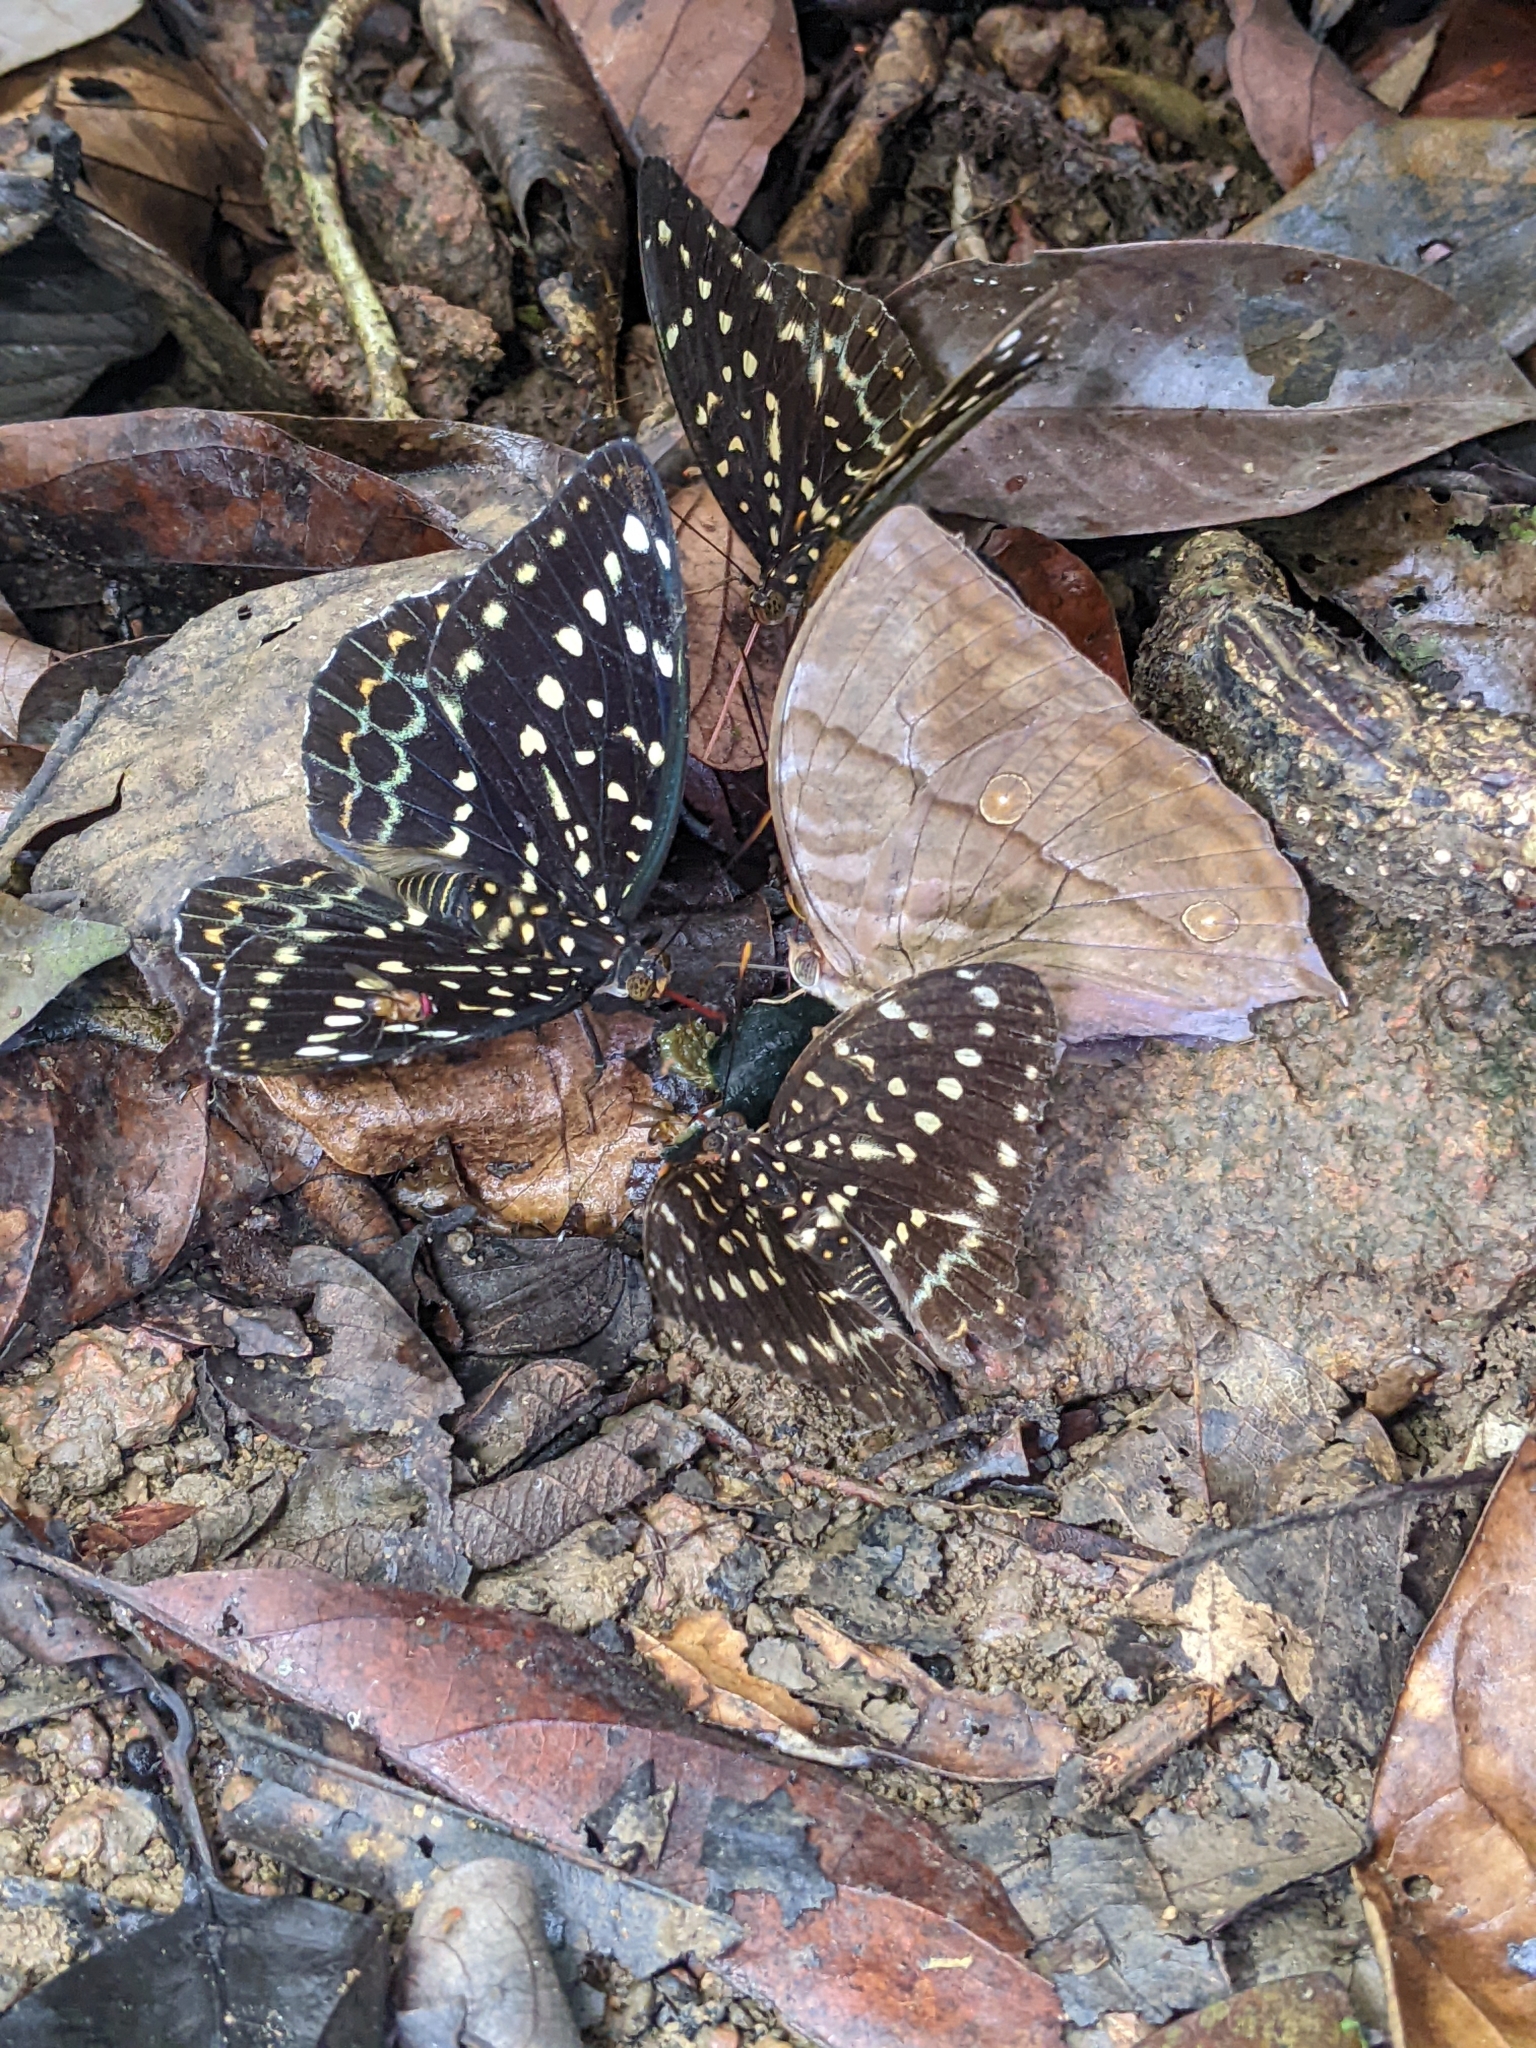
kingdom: Animalia
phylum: Arthropoda
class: Insecta
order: Lepidoptera
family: Nymphalidae
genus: Zeuxidia
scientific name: Zeuxidia amethysta
